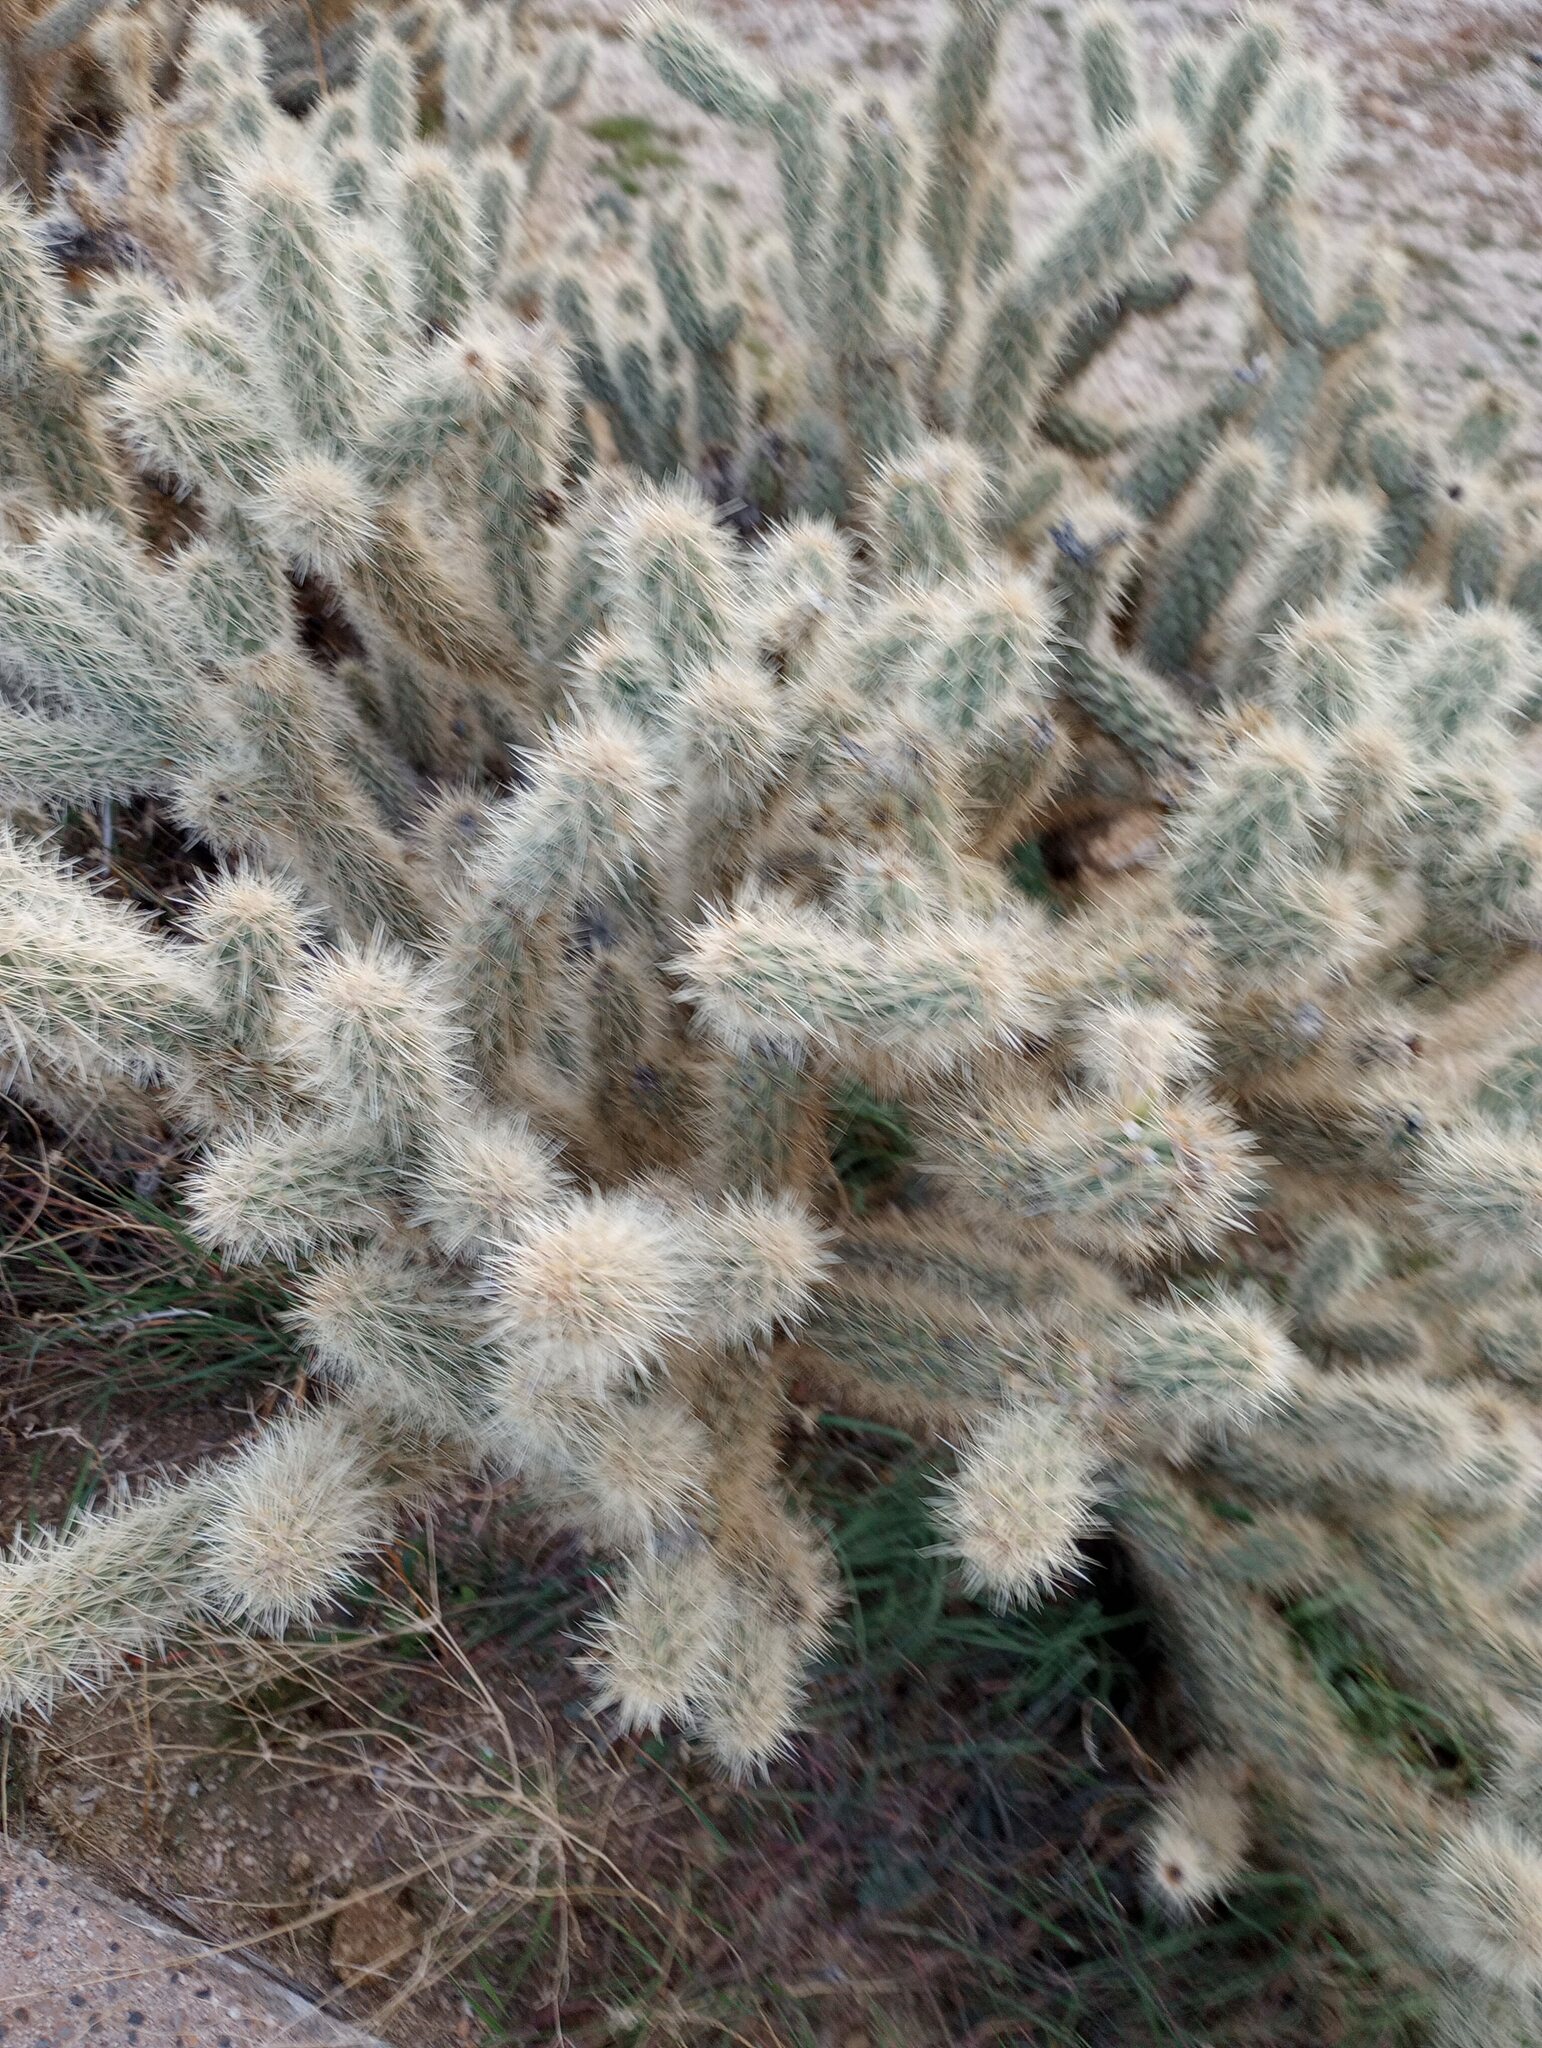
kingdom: Plantae
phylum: Tracheophyta
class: Magnoliopsida
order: Caryophyllales
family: Cactaceae
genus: Cylindropuntia
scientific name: Cylindropuntia ganderi
